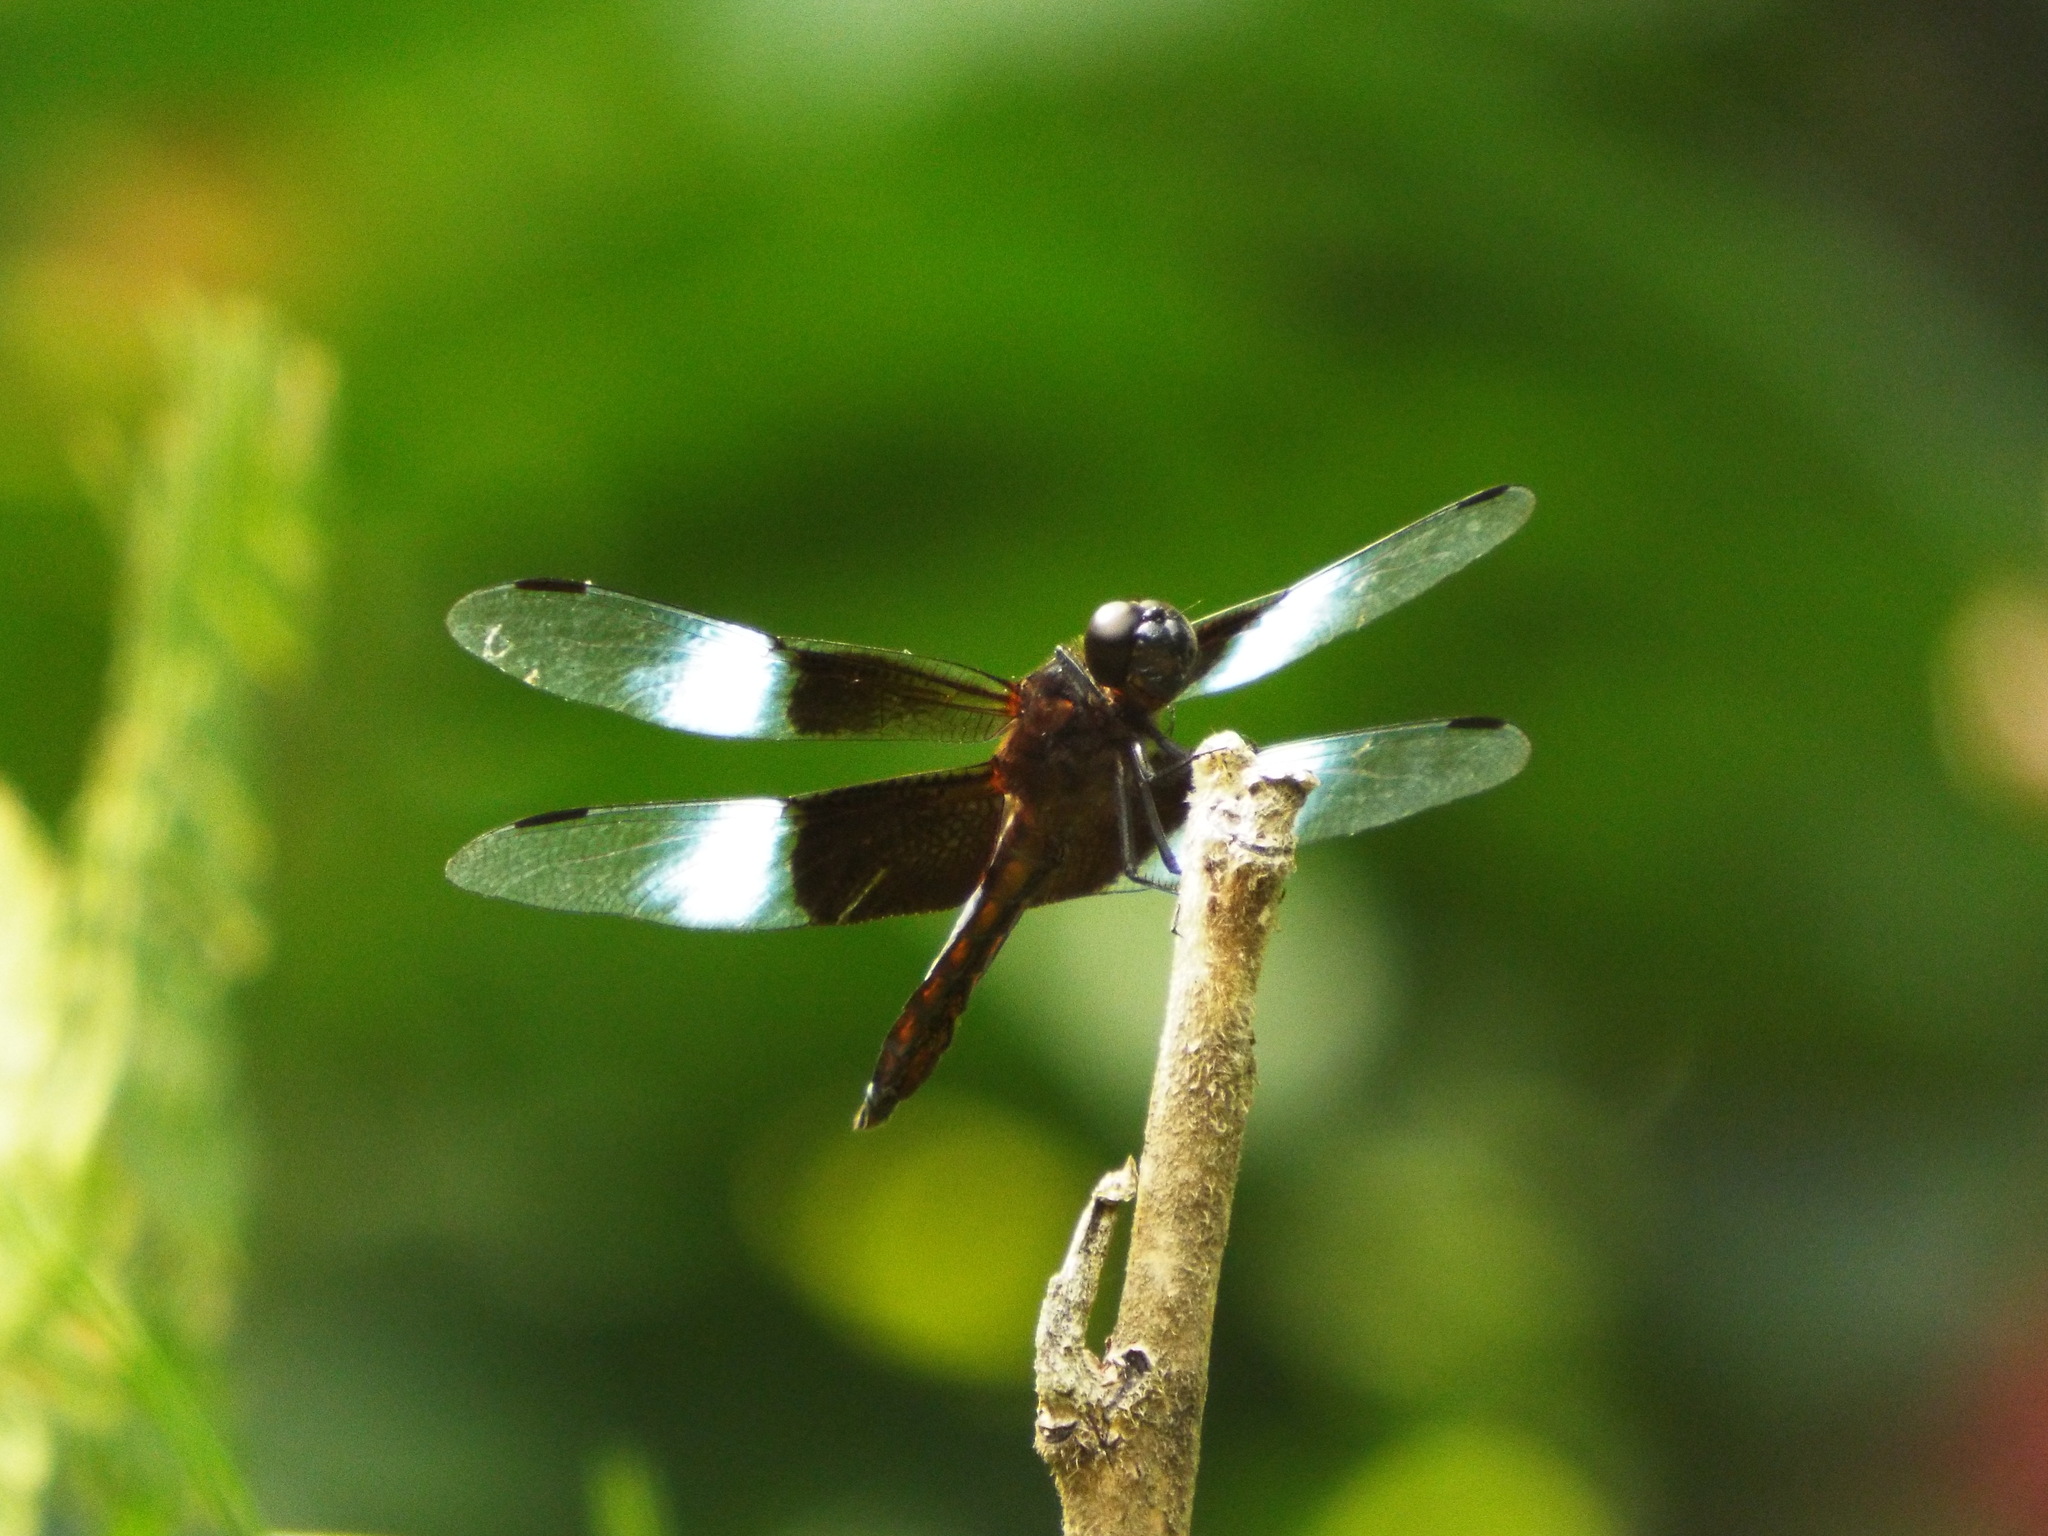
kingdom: Animalia
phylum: Arthropoda
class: Insecta
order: Odonata
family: Libellulidae
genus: Libellula
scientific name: Libellula luctuosa
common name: Widow skimmer
